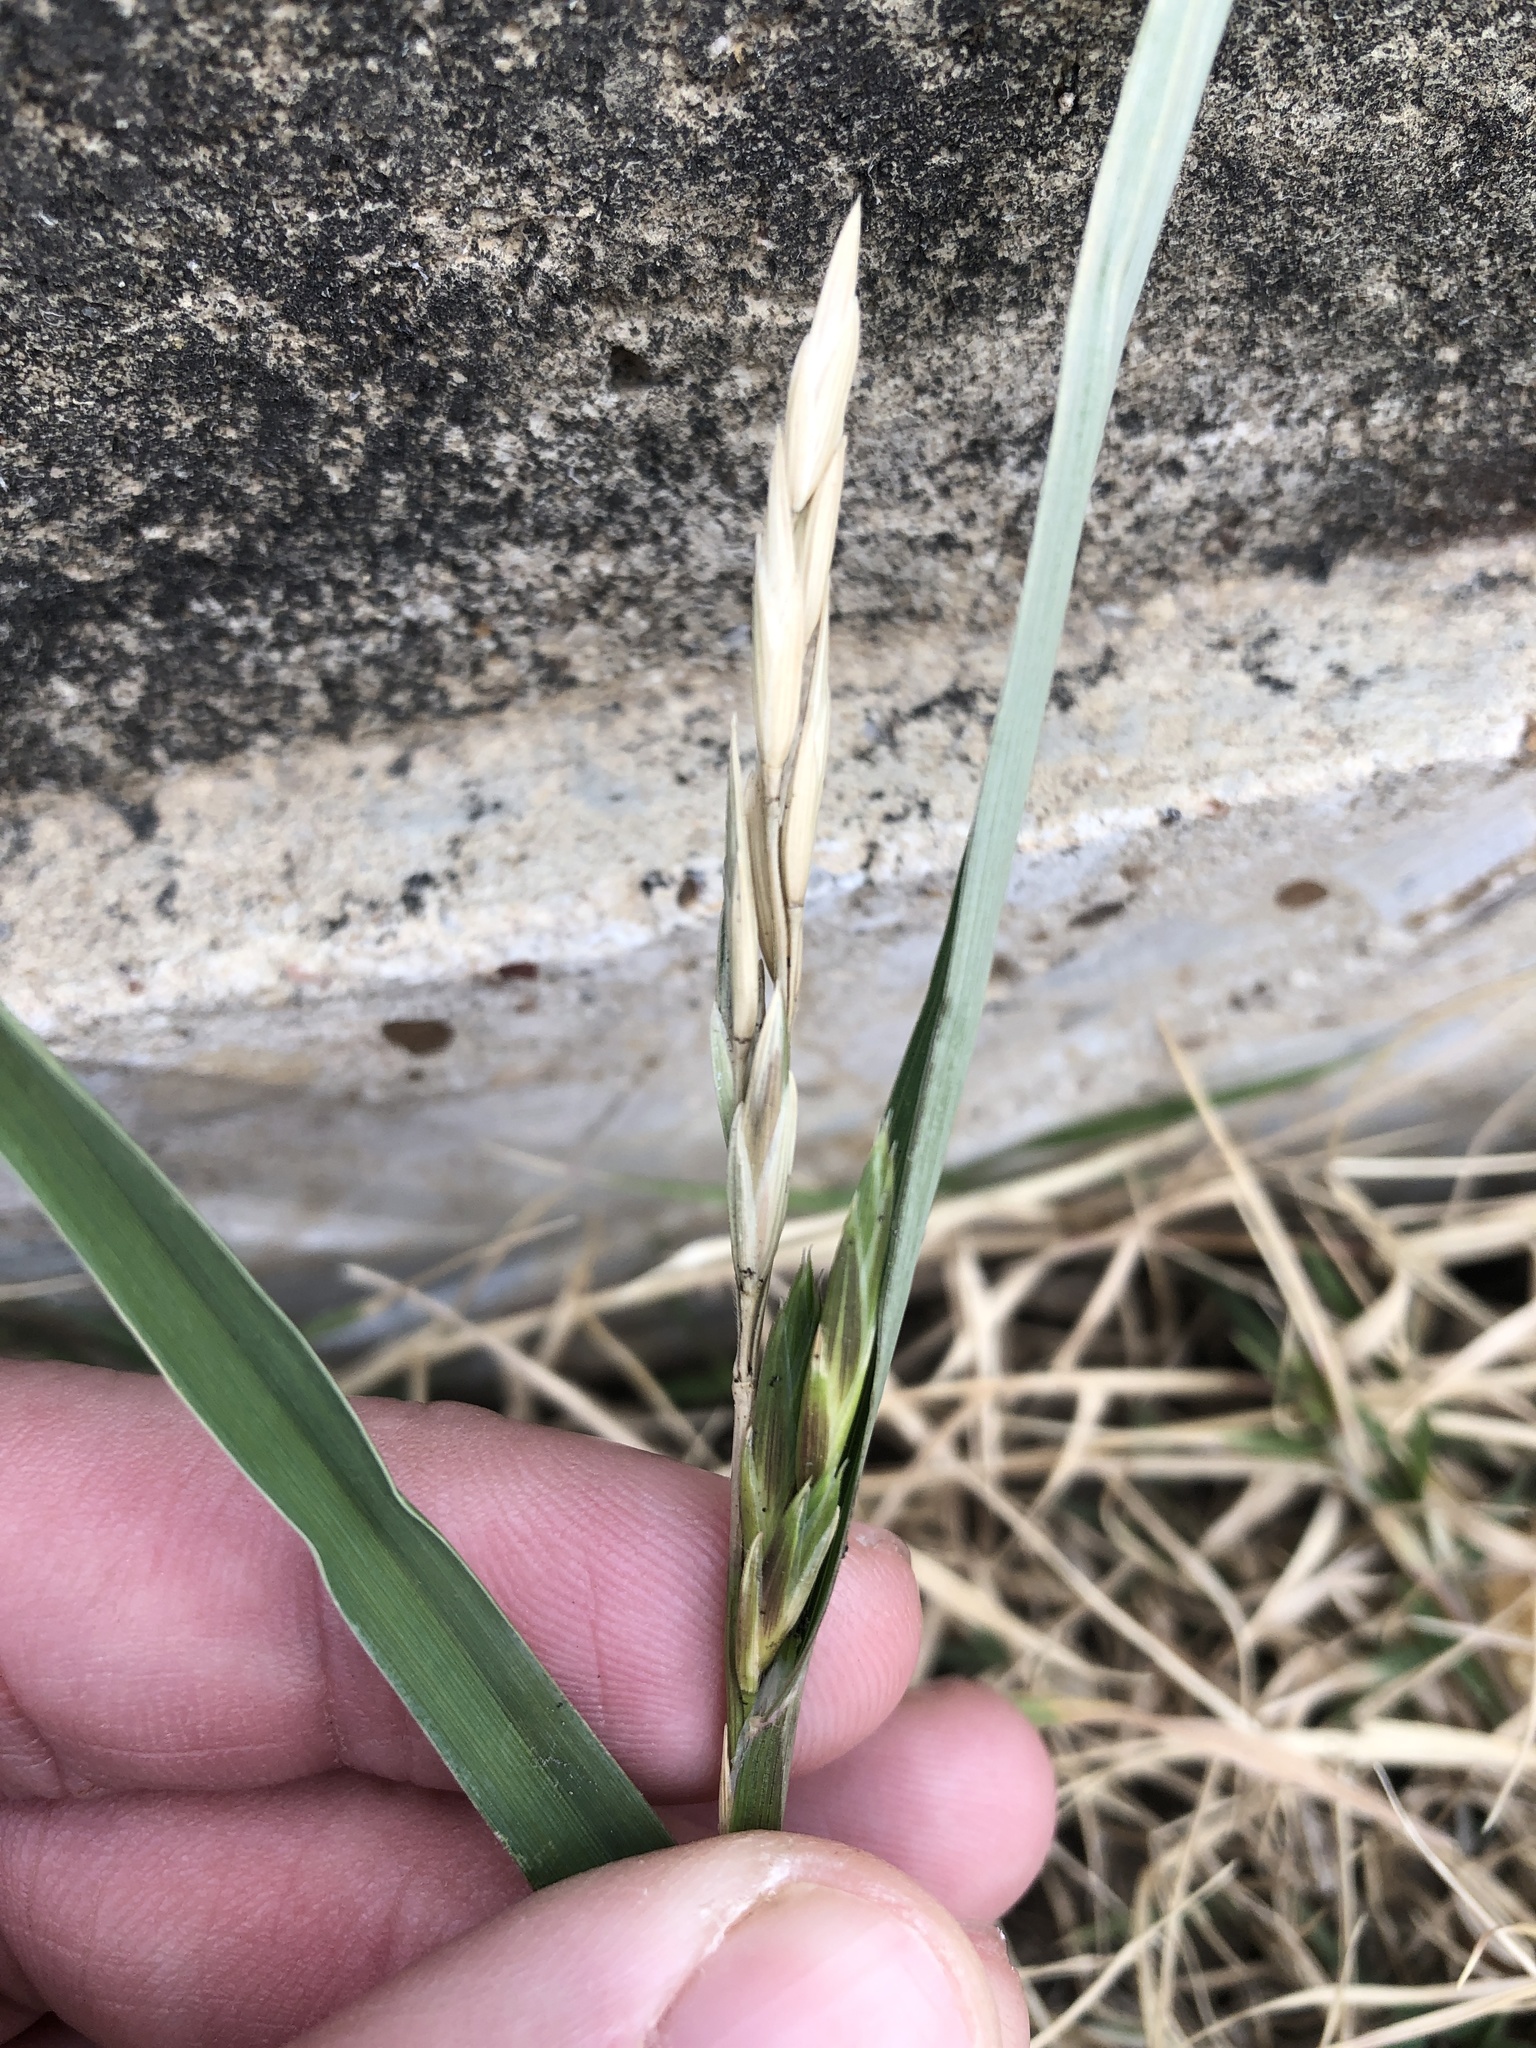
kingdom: Plantae
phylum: Tracheophyta
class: Liliopsida
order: Poales
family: Poaceae
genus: Bromus
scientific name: Bromus catharticus
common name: Rescuegrass
